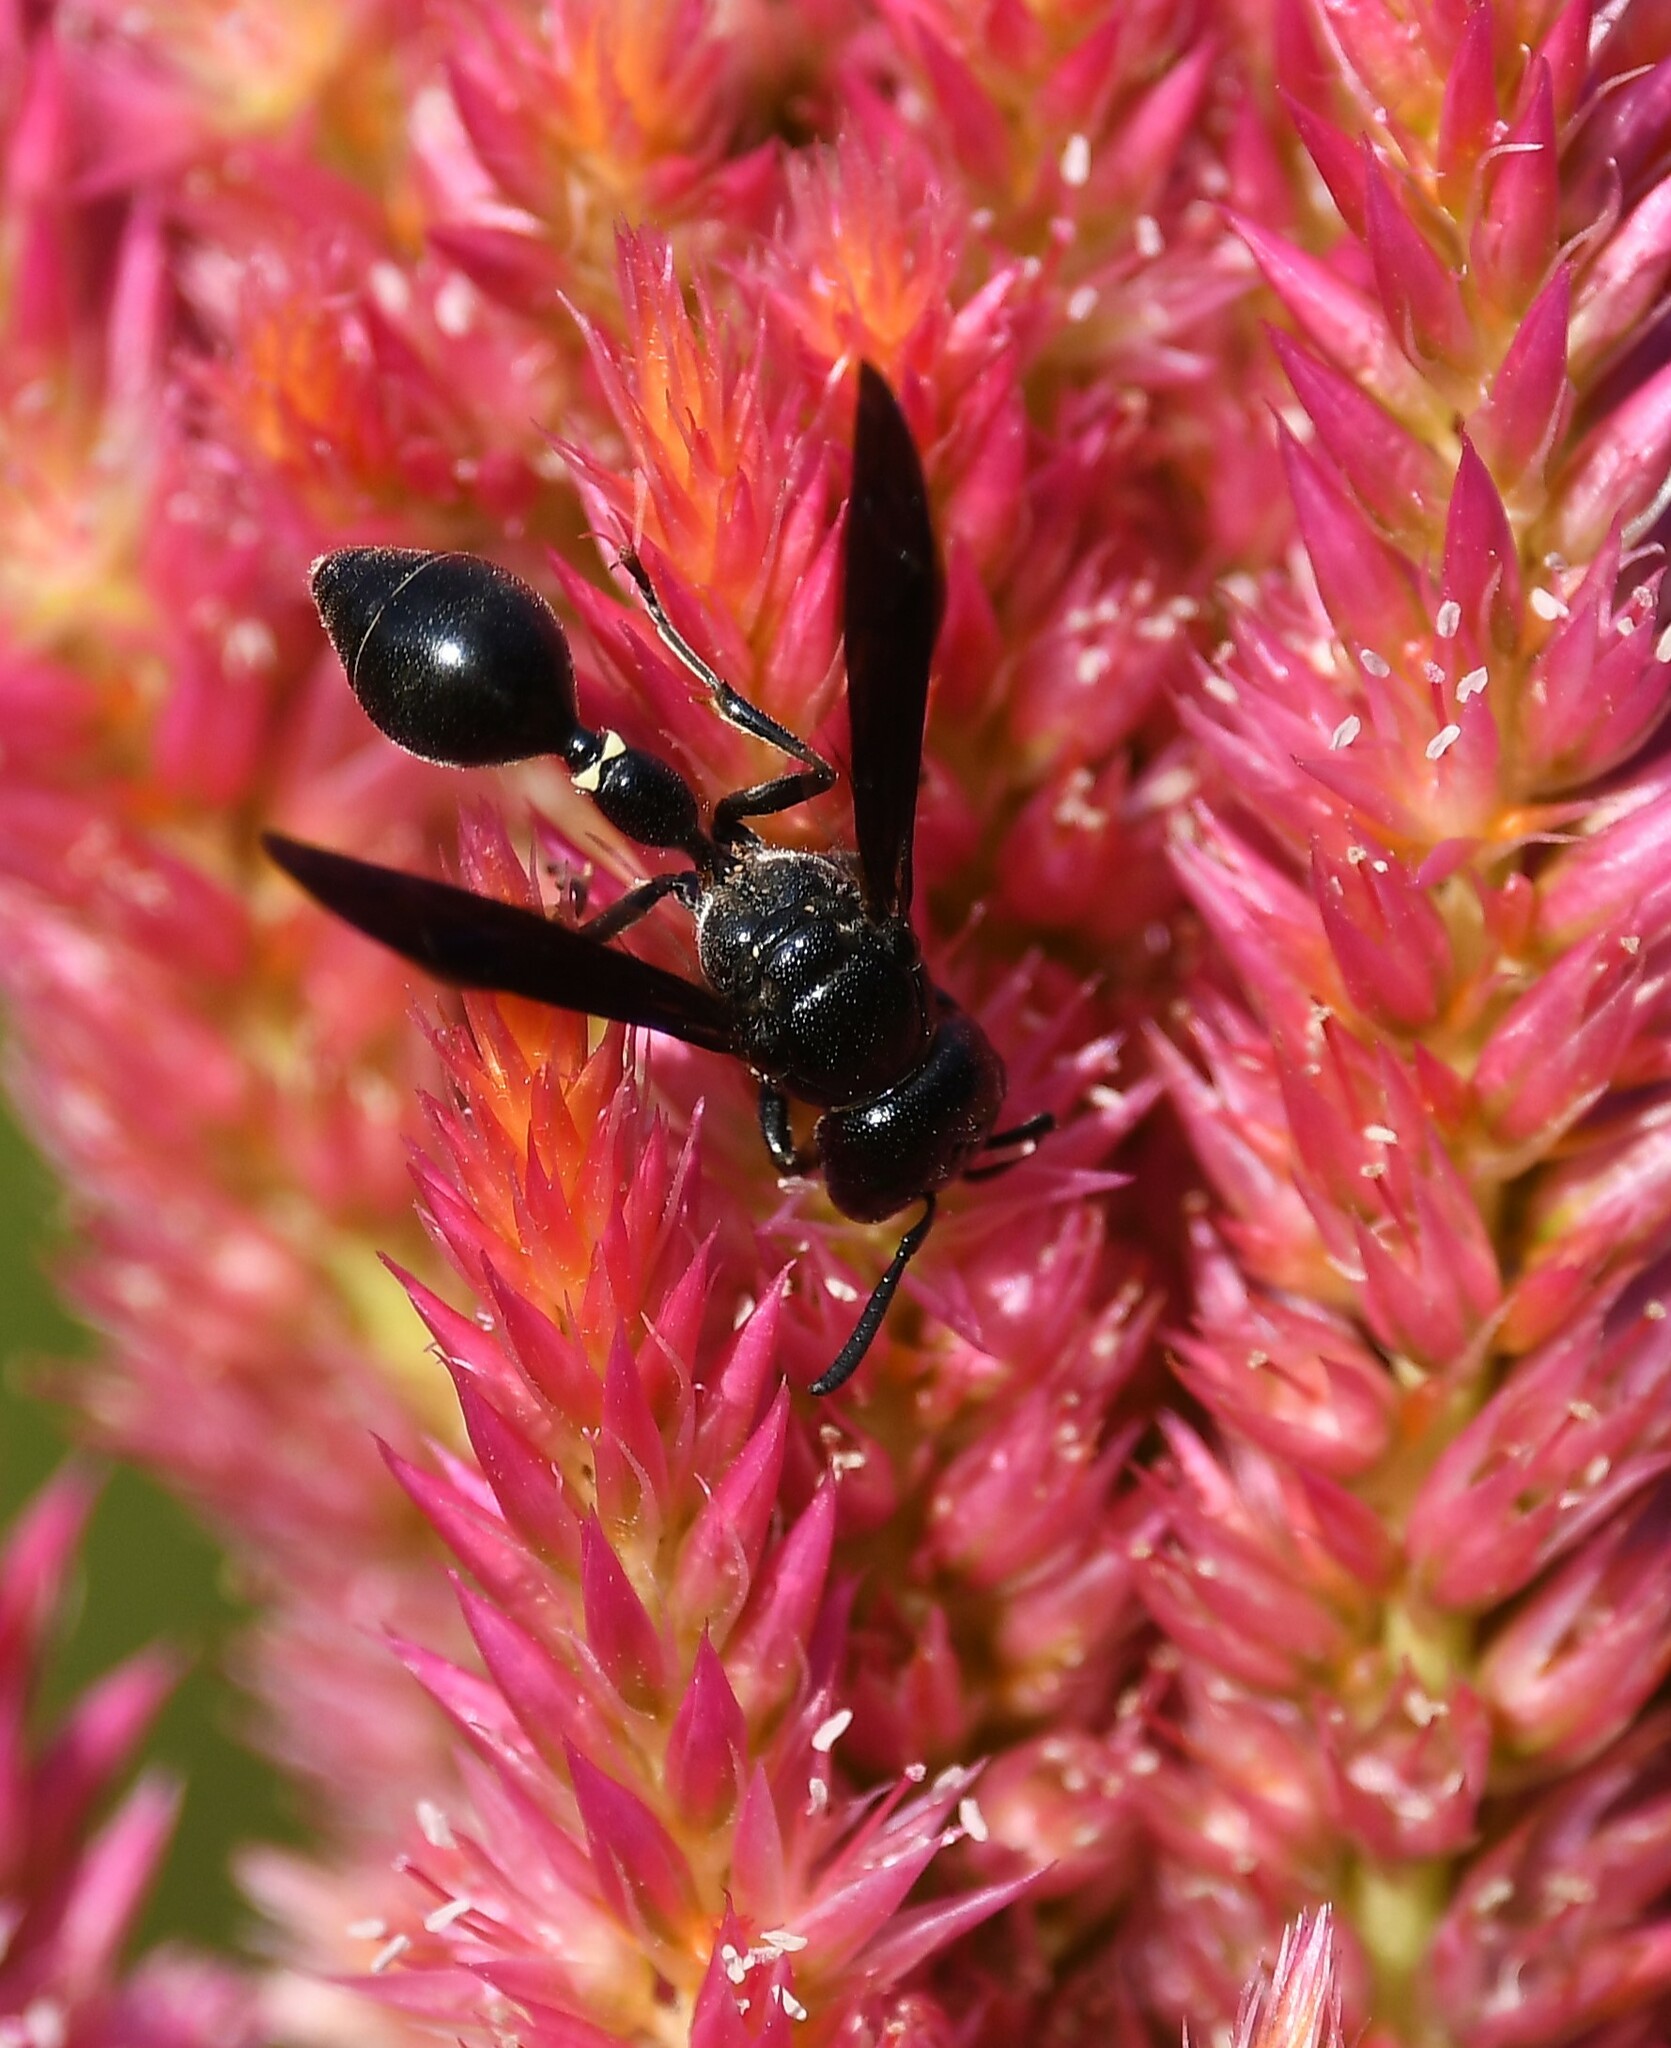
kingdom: Animalia
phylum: Arthropoda
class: Insecta
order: Hymenoptera
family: Eumenidae
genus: Zethus
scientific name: Zethus spinipes
